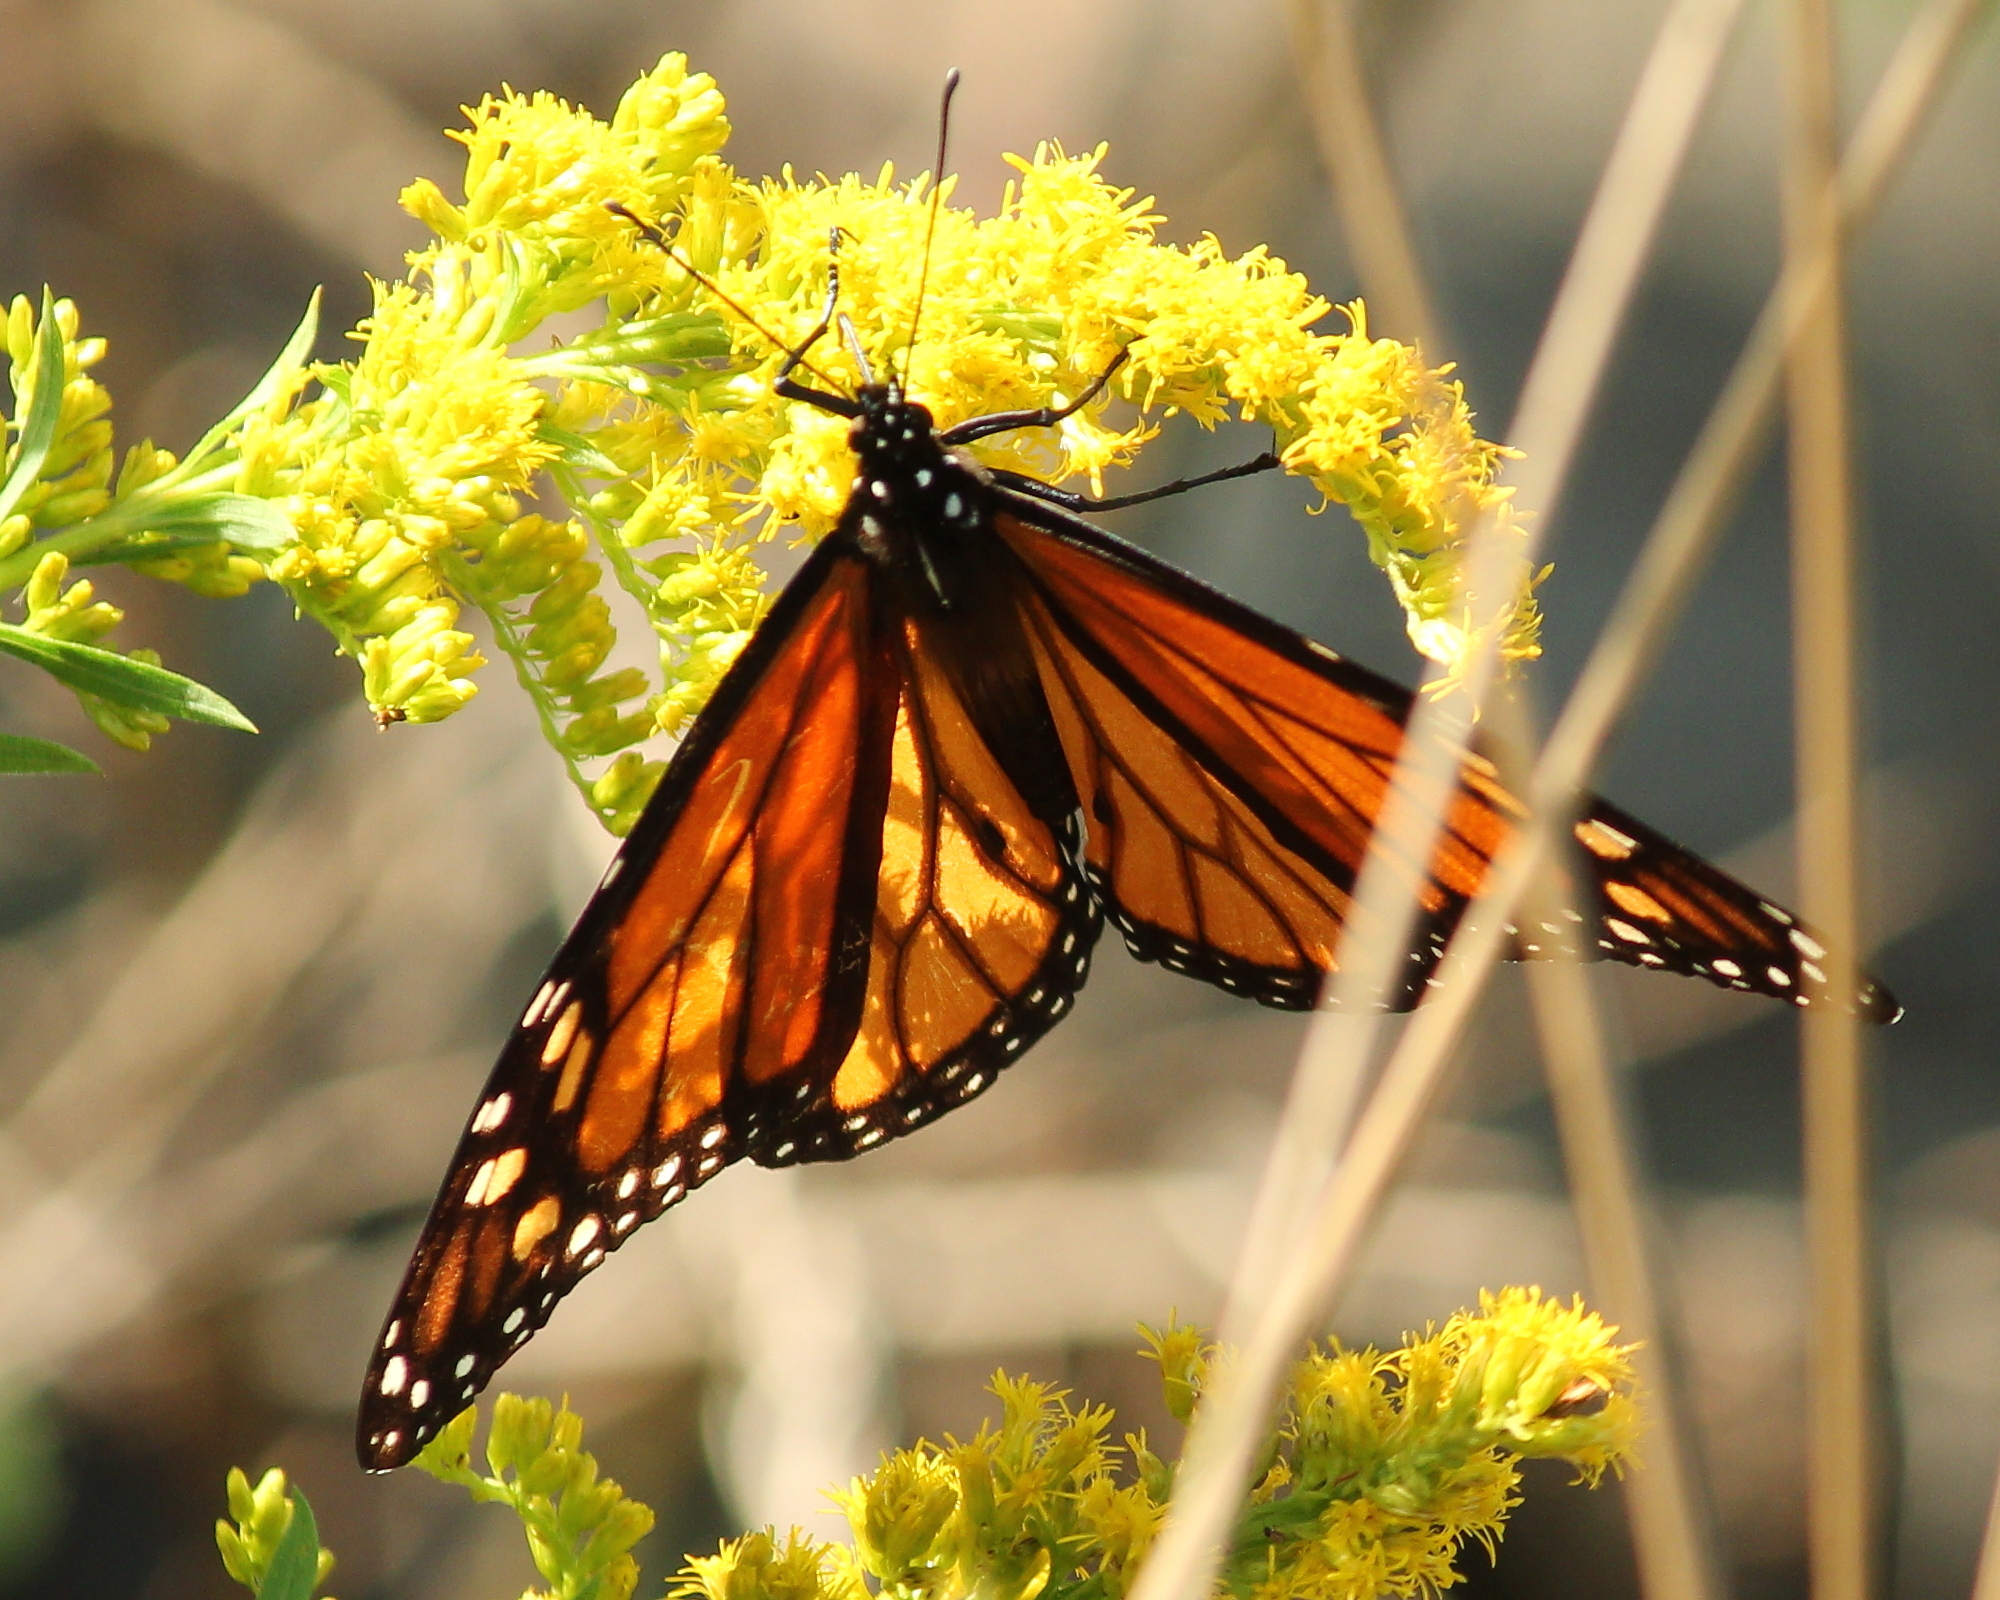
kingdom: Animalia
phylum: Arthropoda
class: Insecta
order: Lepidoptera
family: Nymphalidae
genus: Danaus
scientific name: Danaus plexippus
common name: Monarch
